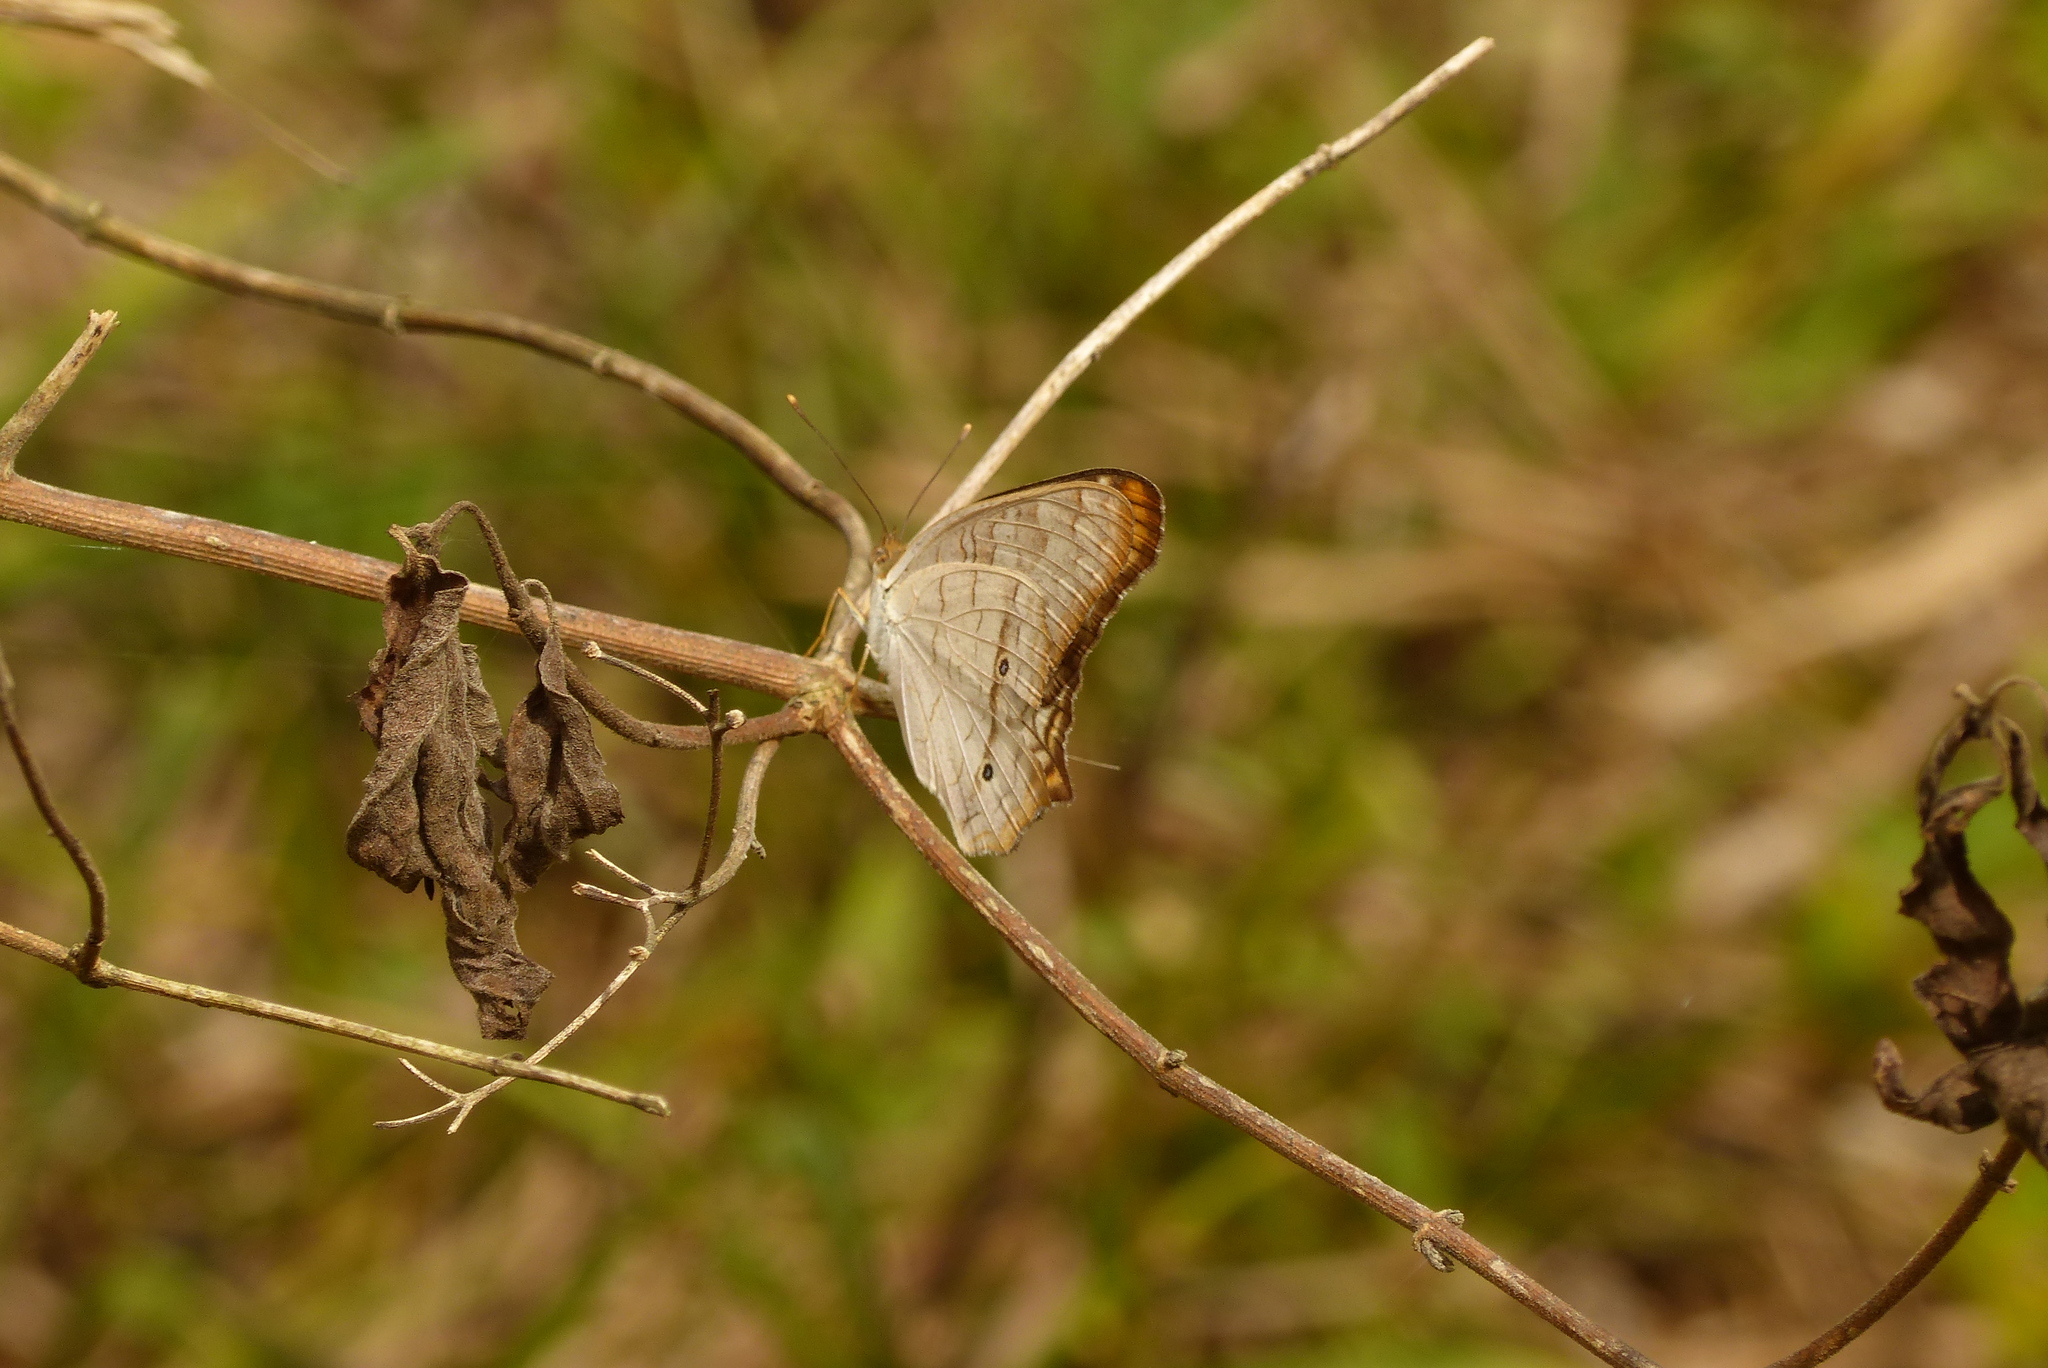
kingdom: Animalia
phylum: Arthropoda
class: Insecta
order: Lepidoptera
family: Nymphalidae
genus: Anartia
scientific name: Anartia jatrophae
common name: White peacock
